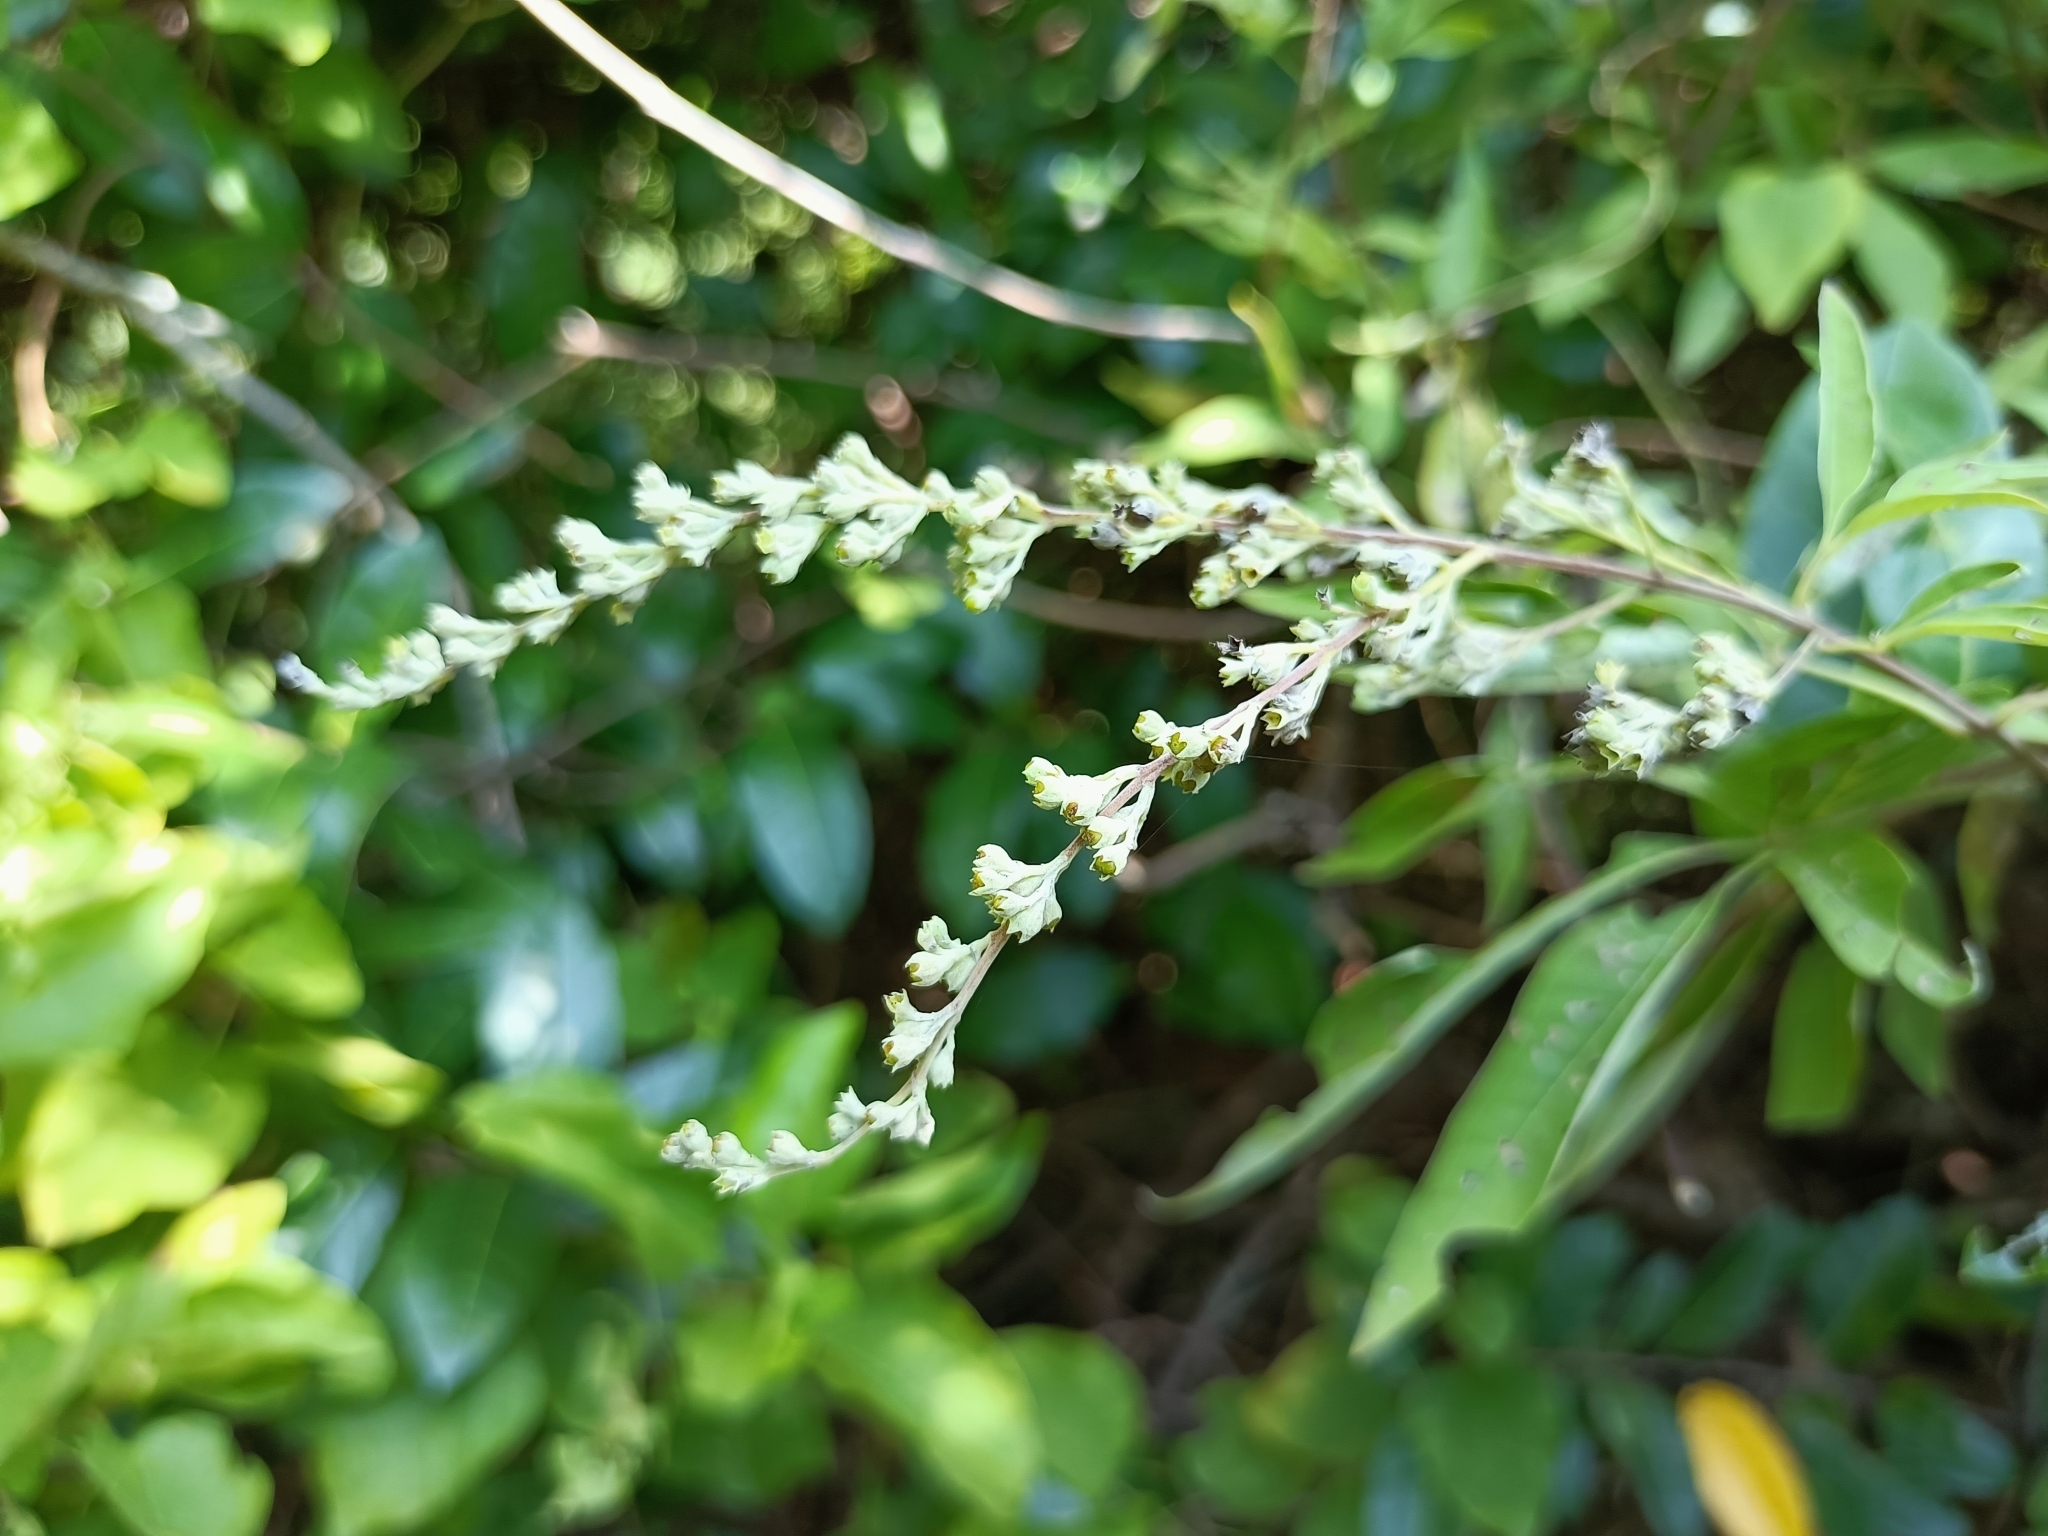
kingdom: Plantae
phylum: Tracheophyta
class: Magnoliopsida
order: Lamiales
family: Lamiaceae
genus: Vitex
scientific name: Vitex negundo
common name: Chinese chastetree
